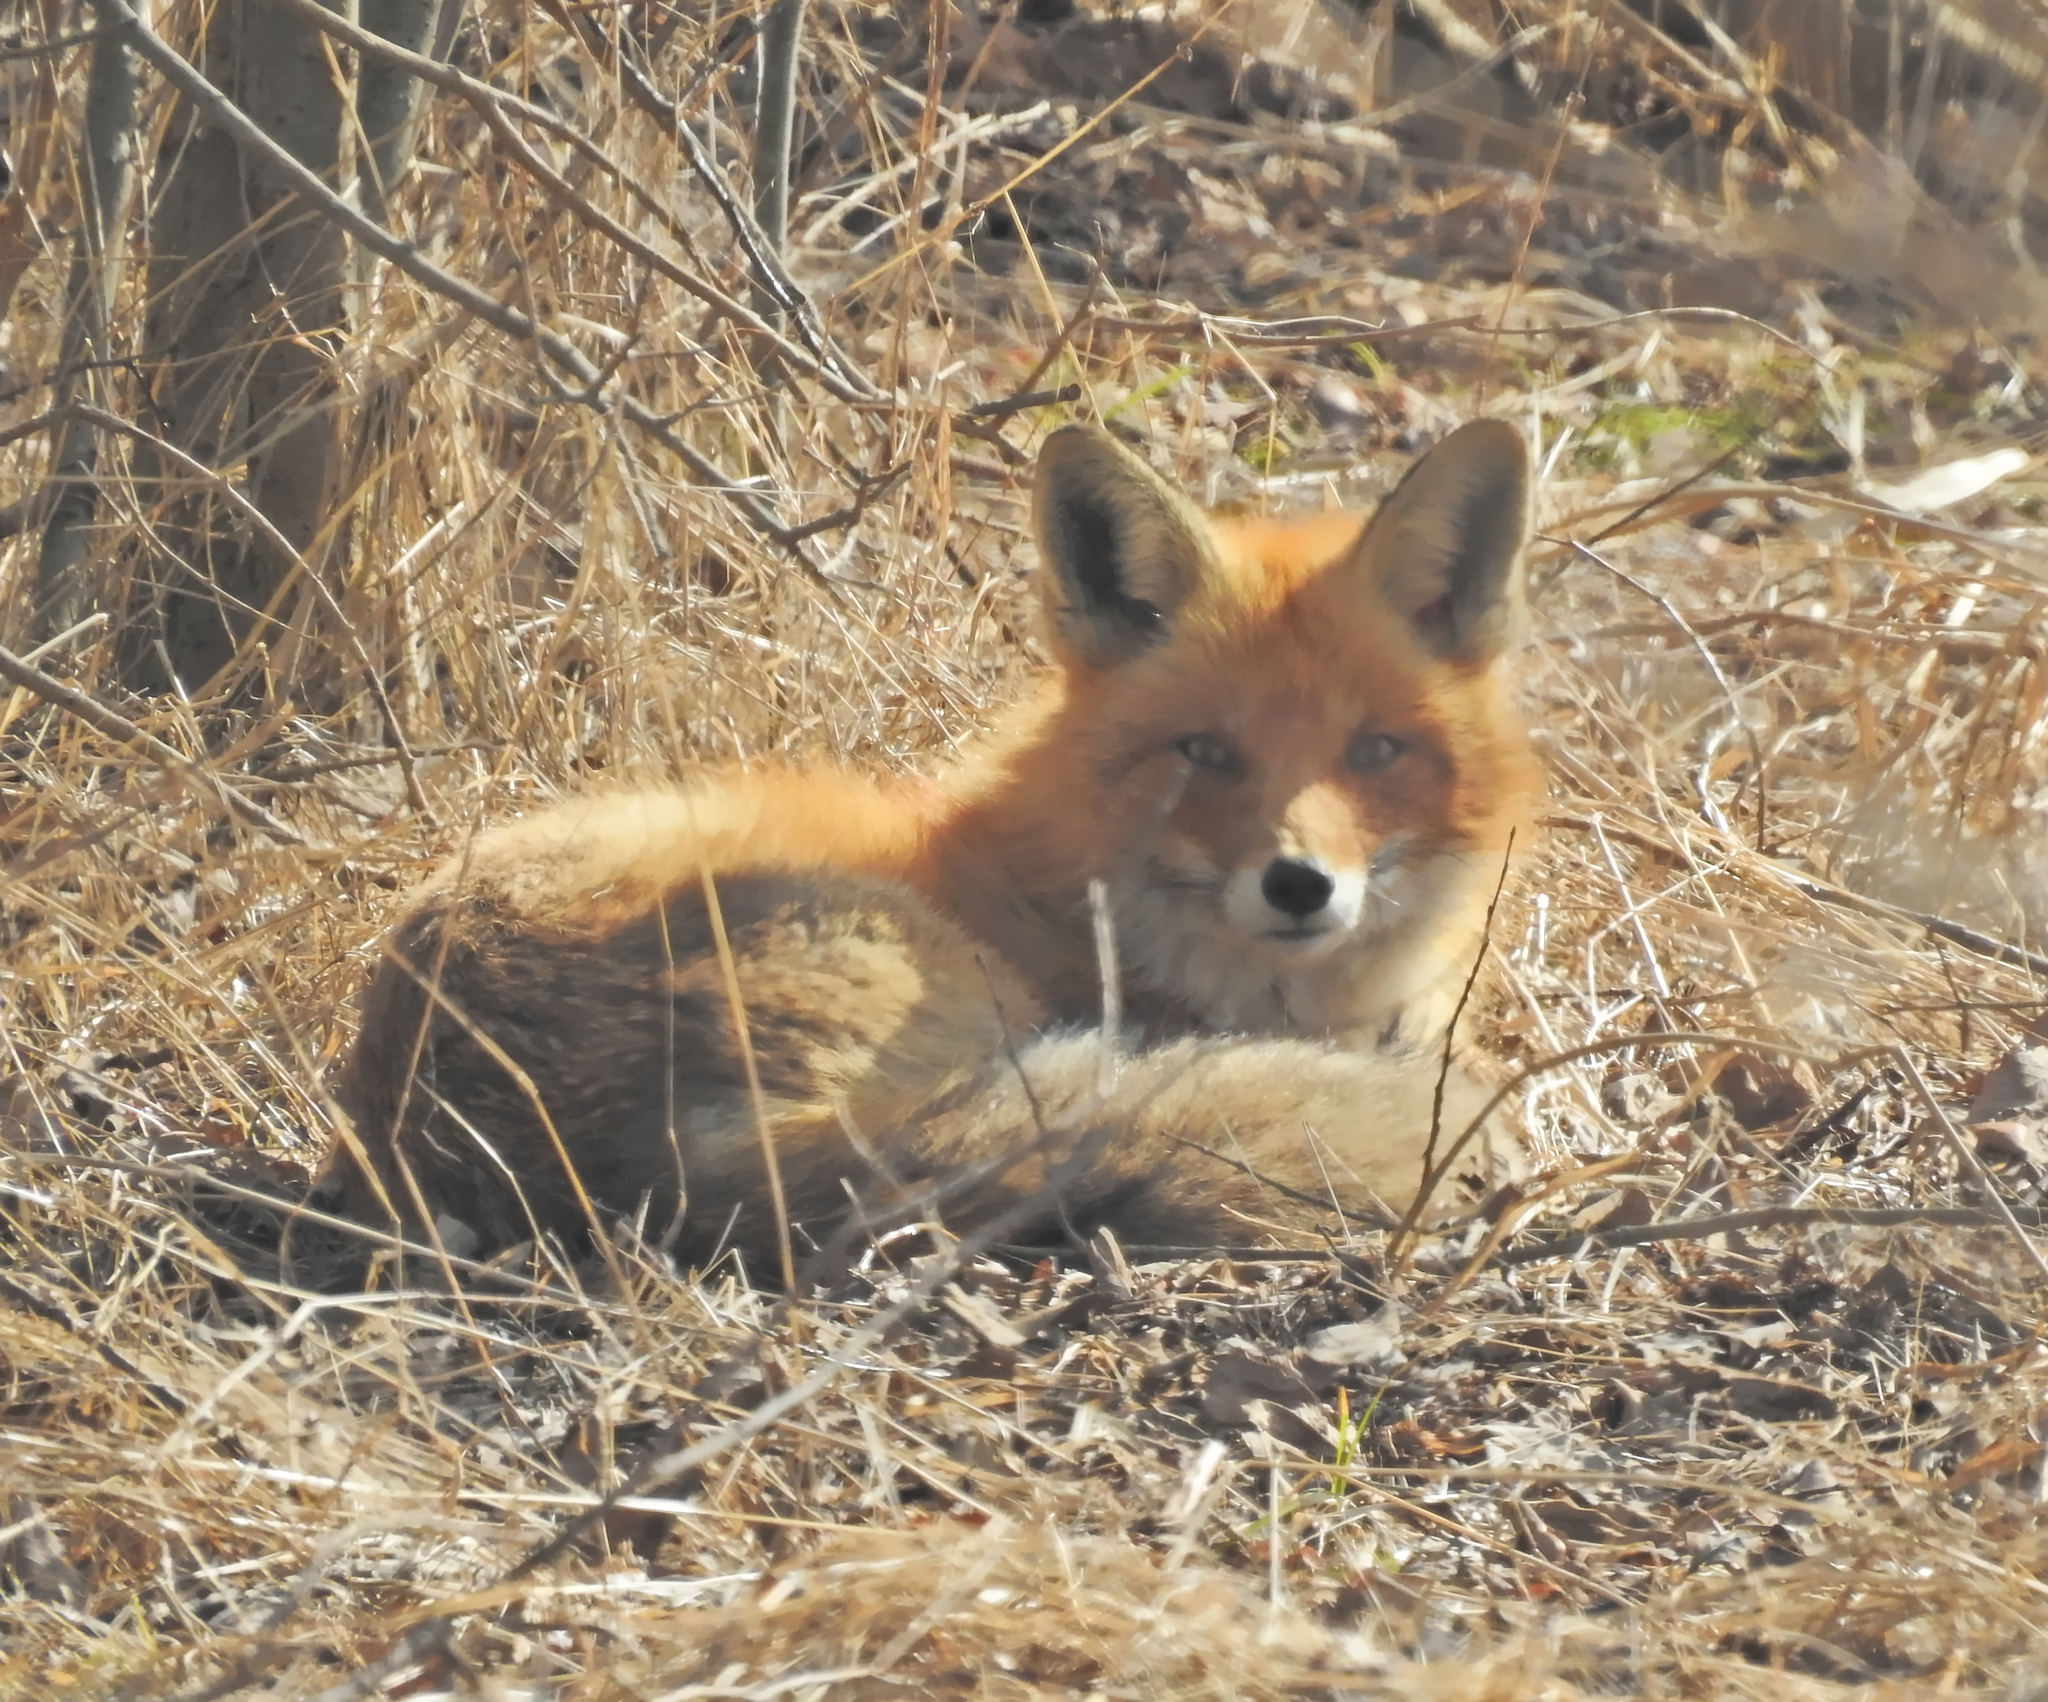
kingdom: Animalia
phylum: Chordata
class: Mammalia
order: Carnivora
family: Canidae
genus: Vulpes
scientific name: Vulpes vulpes
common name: Red fox
